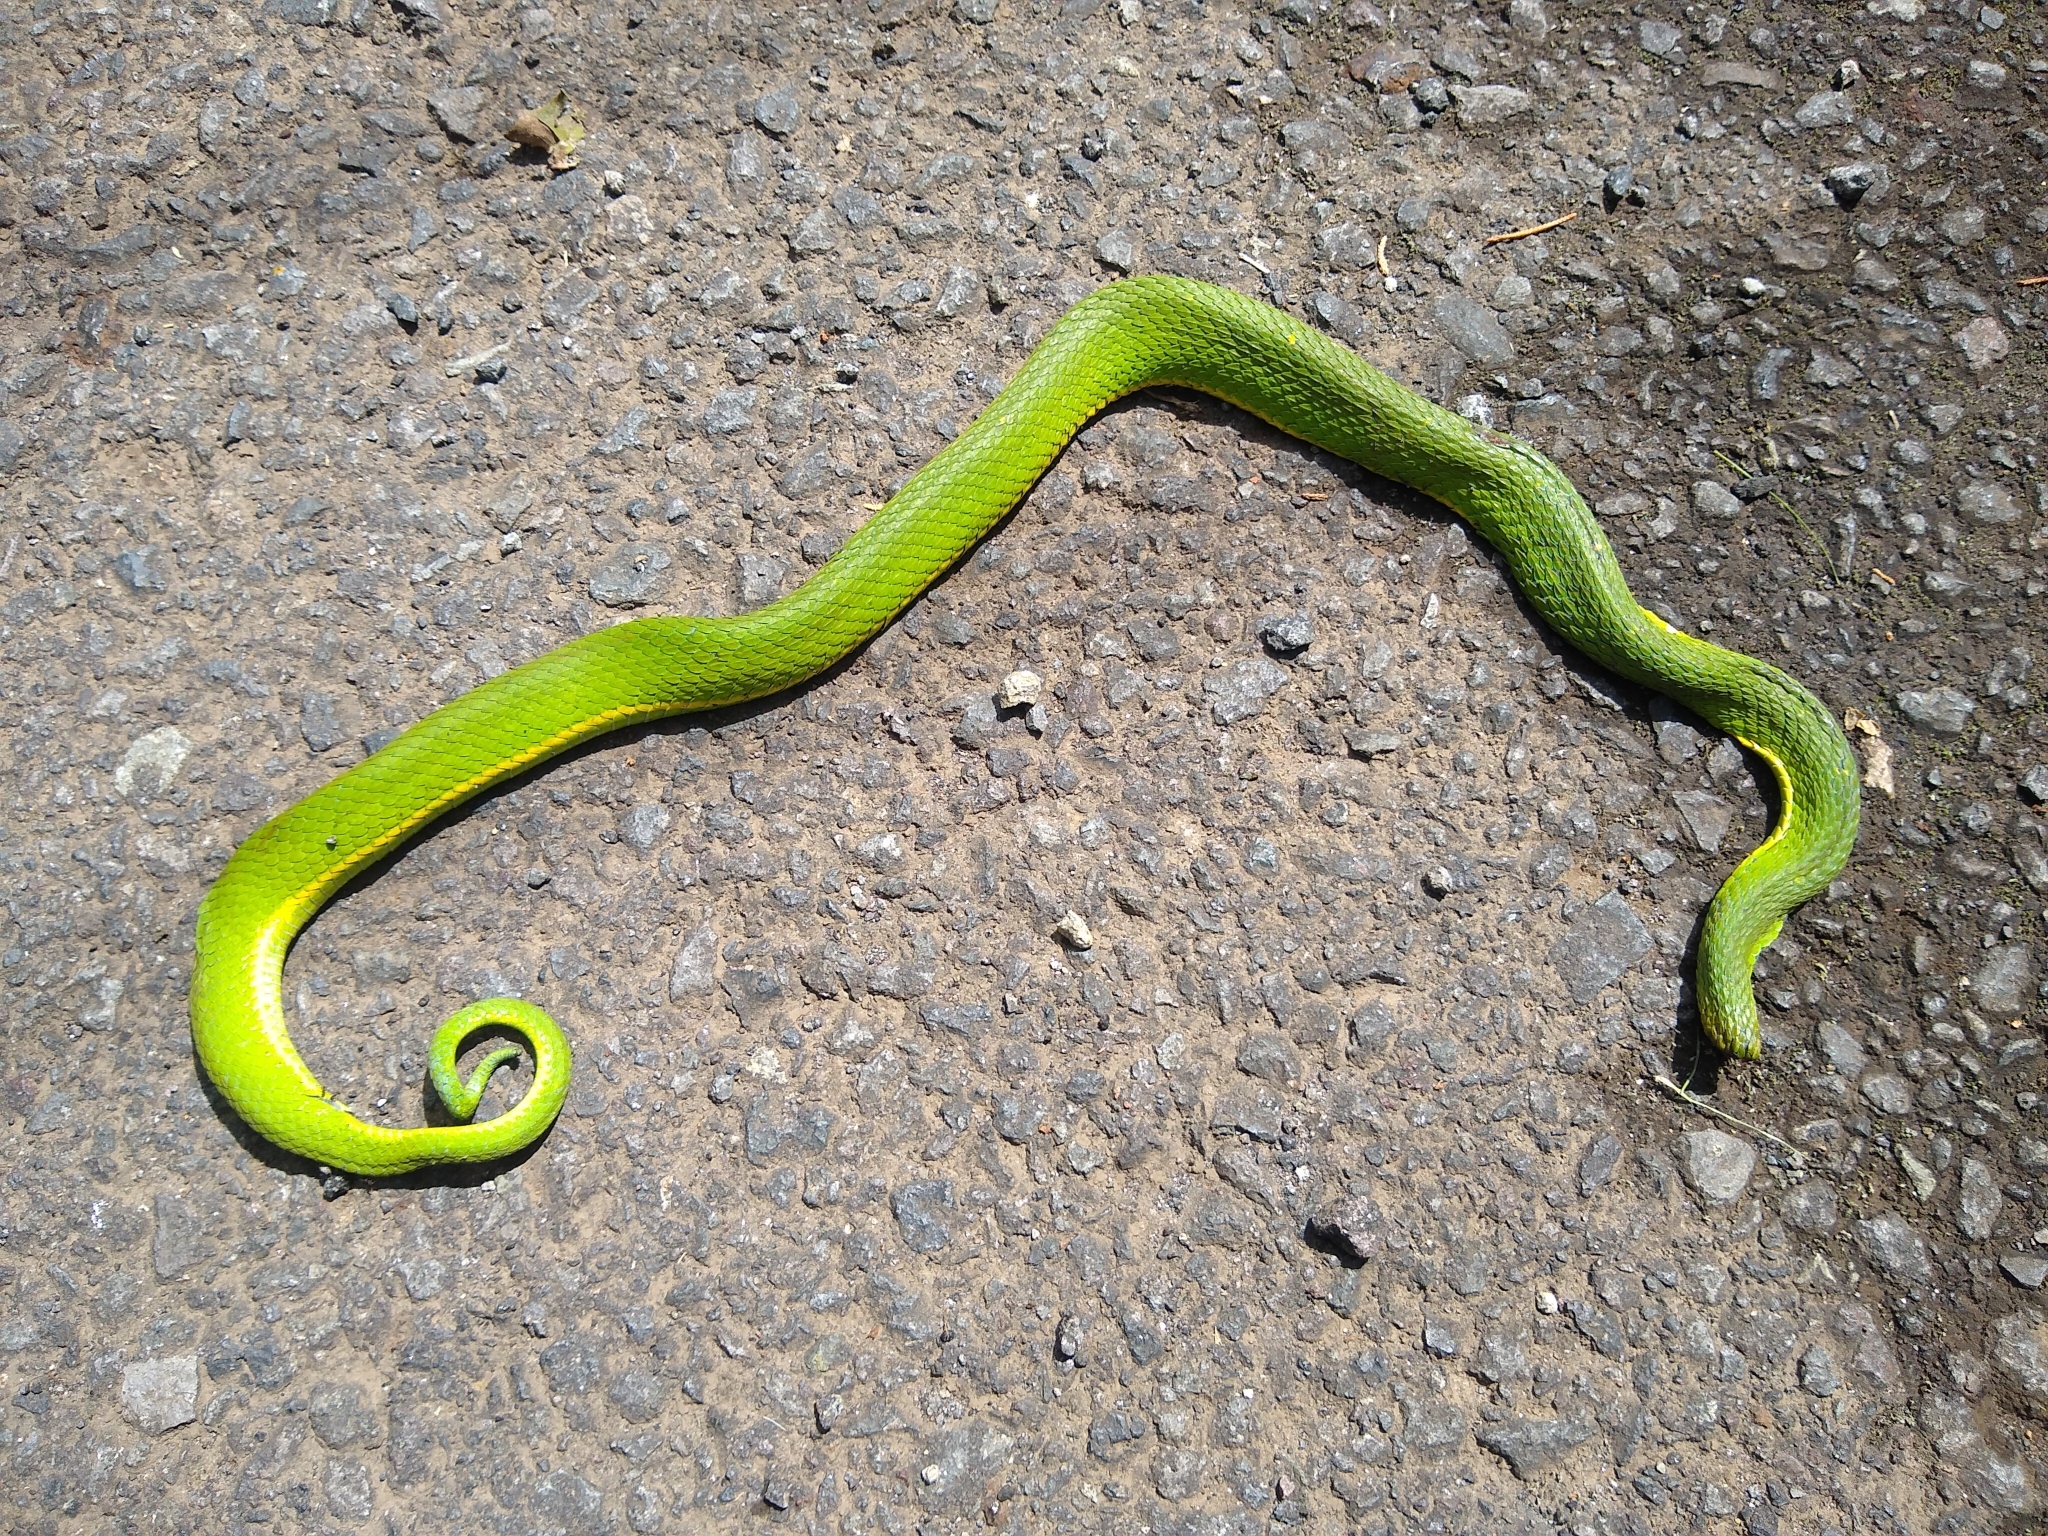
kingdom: Animalia
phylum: Chordata
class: Squamata
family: Viperidae
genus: Bothriechis
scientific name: Bothriechis lateralis
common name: Coffee palm viper
